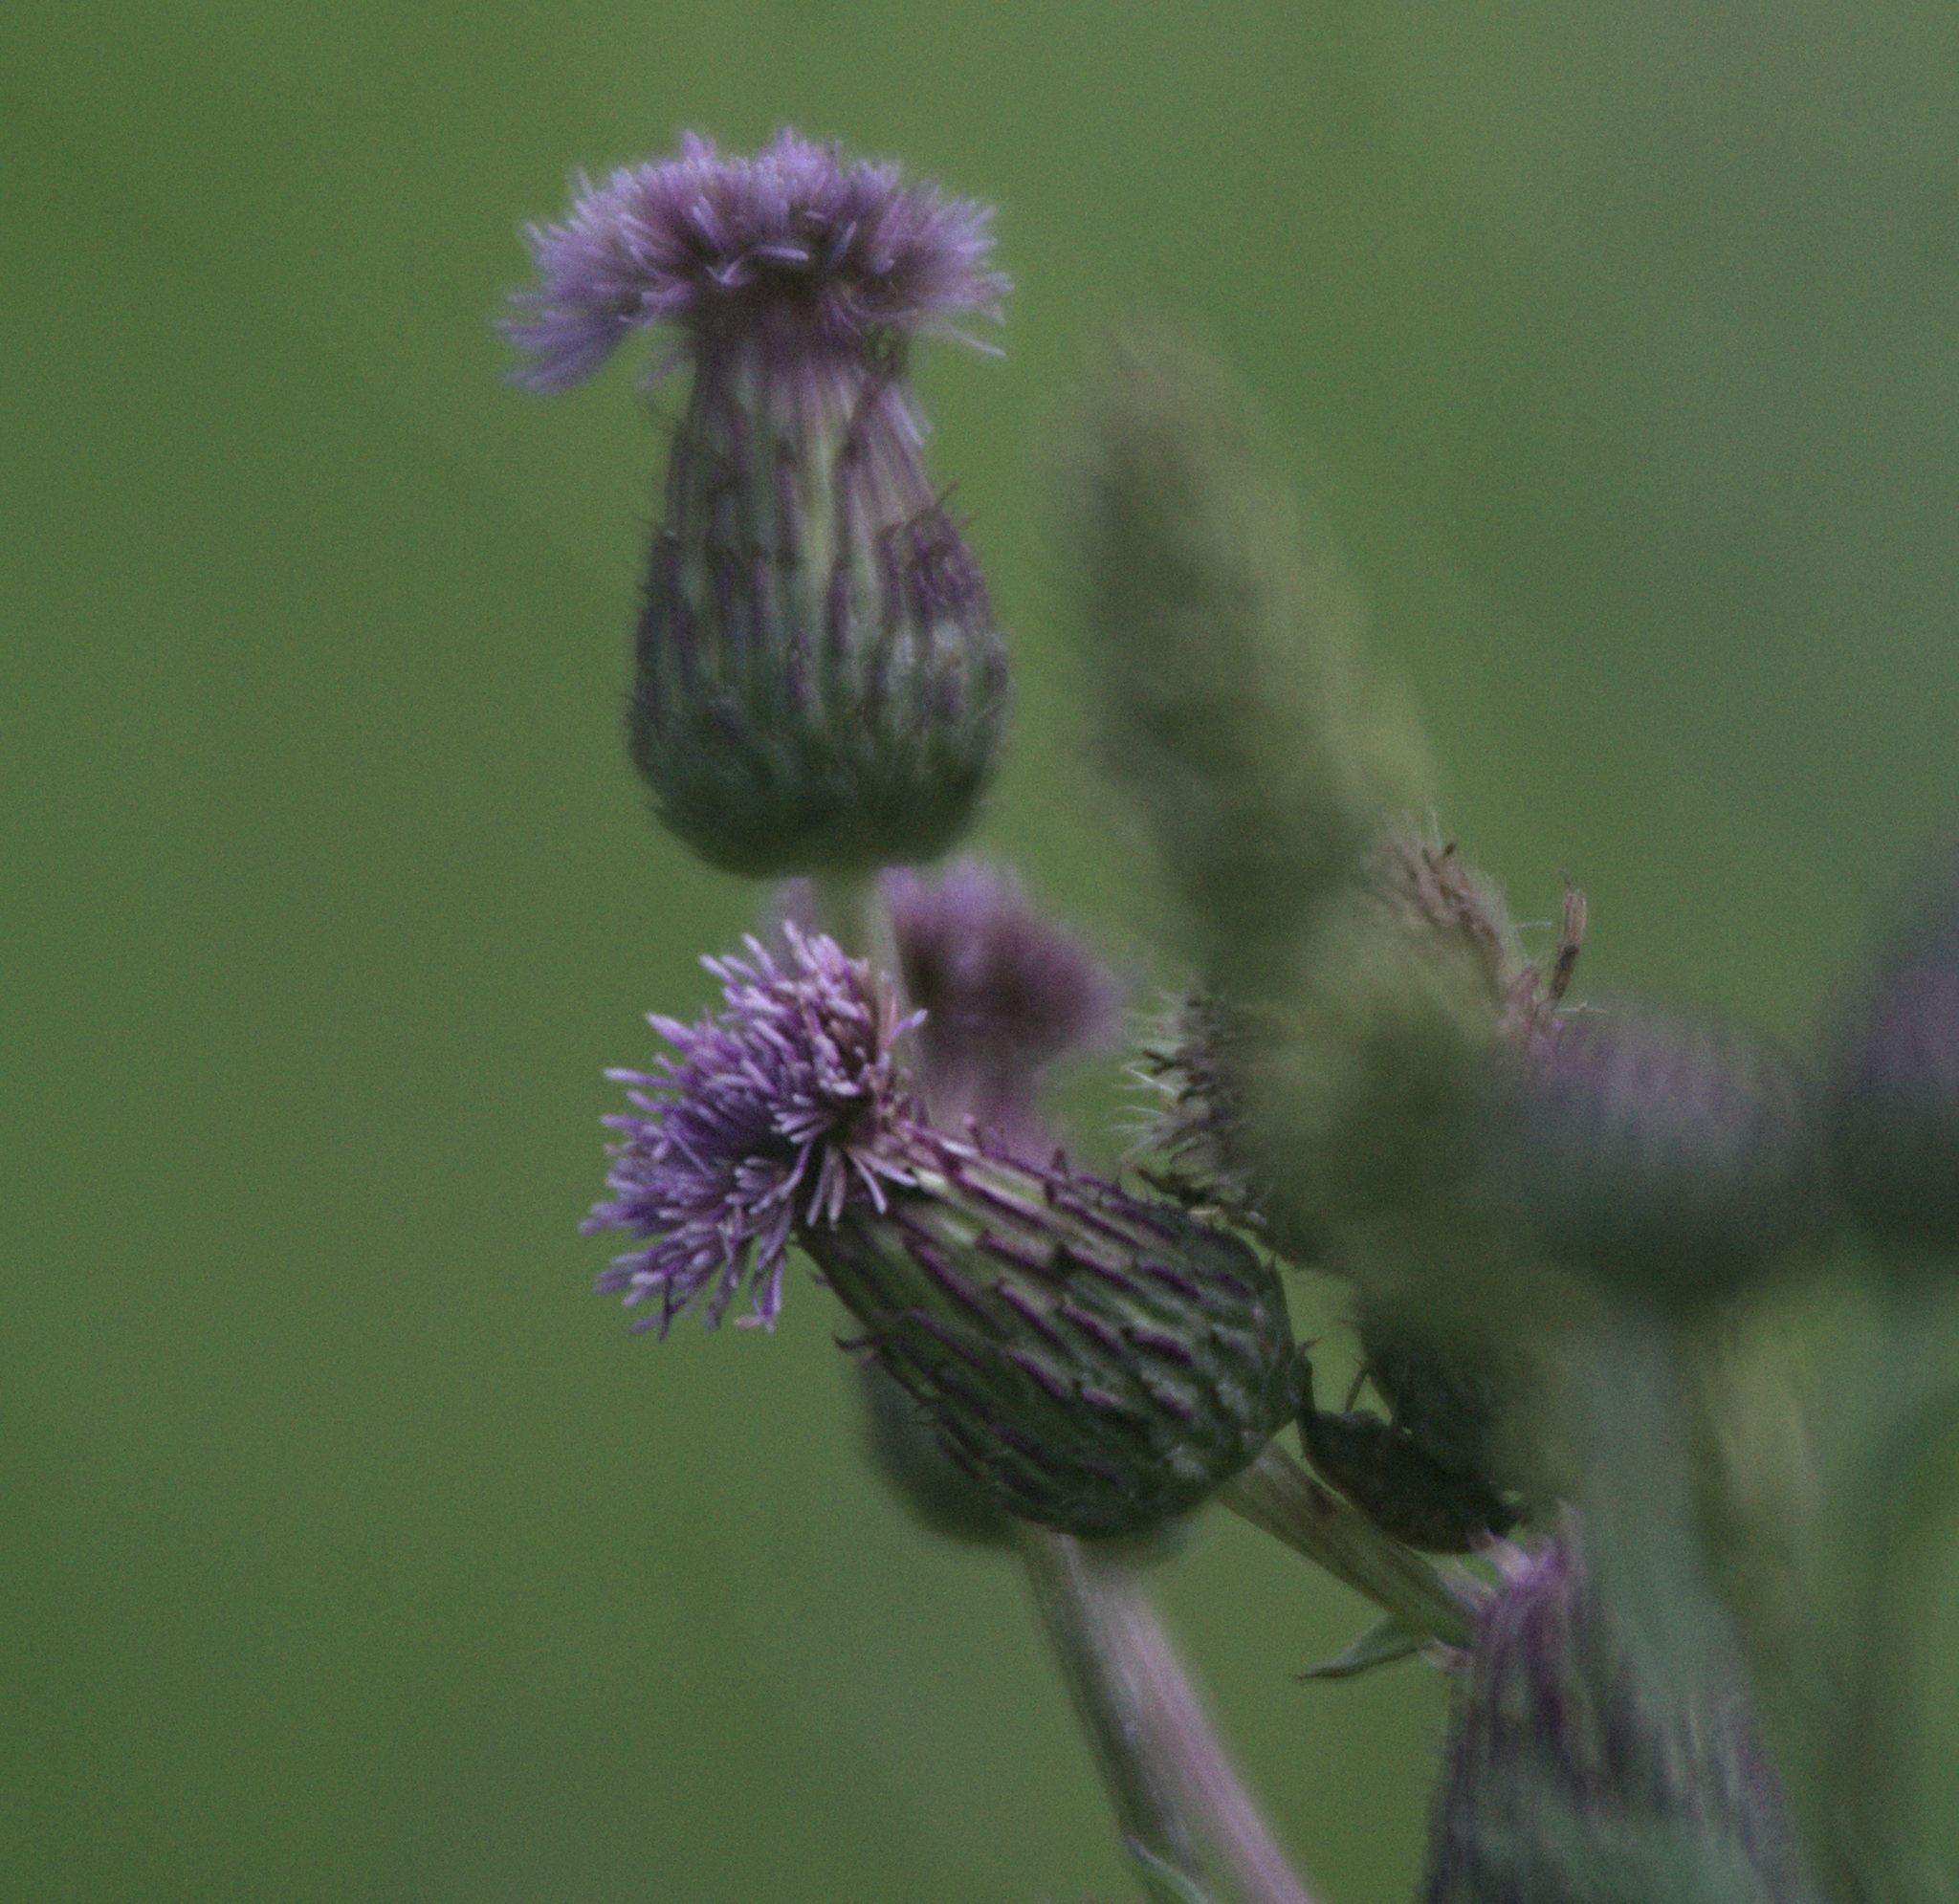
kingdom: Plantae
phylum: Tracheophyta
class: Magnoliopsida
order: Asterales
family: Asteraceae
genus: Cirsium
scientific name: Cirsium arvense
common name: Creeping thistle
